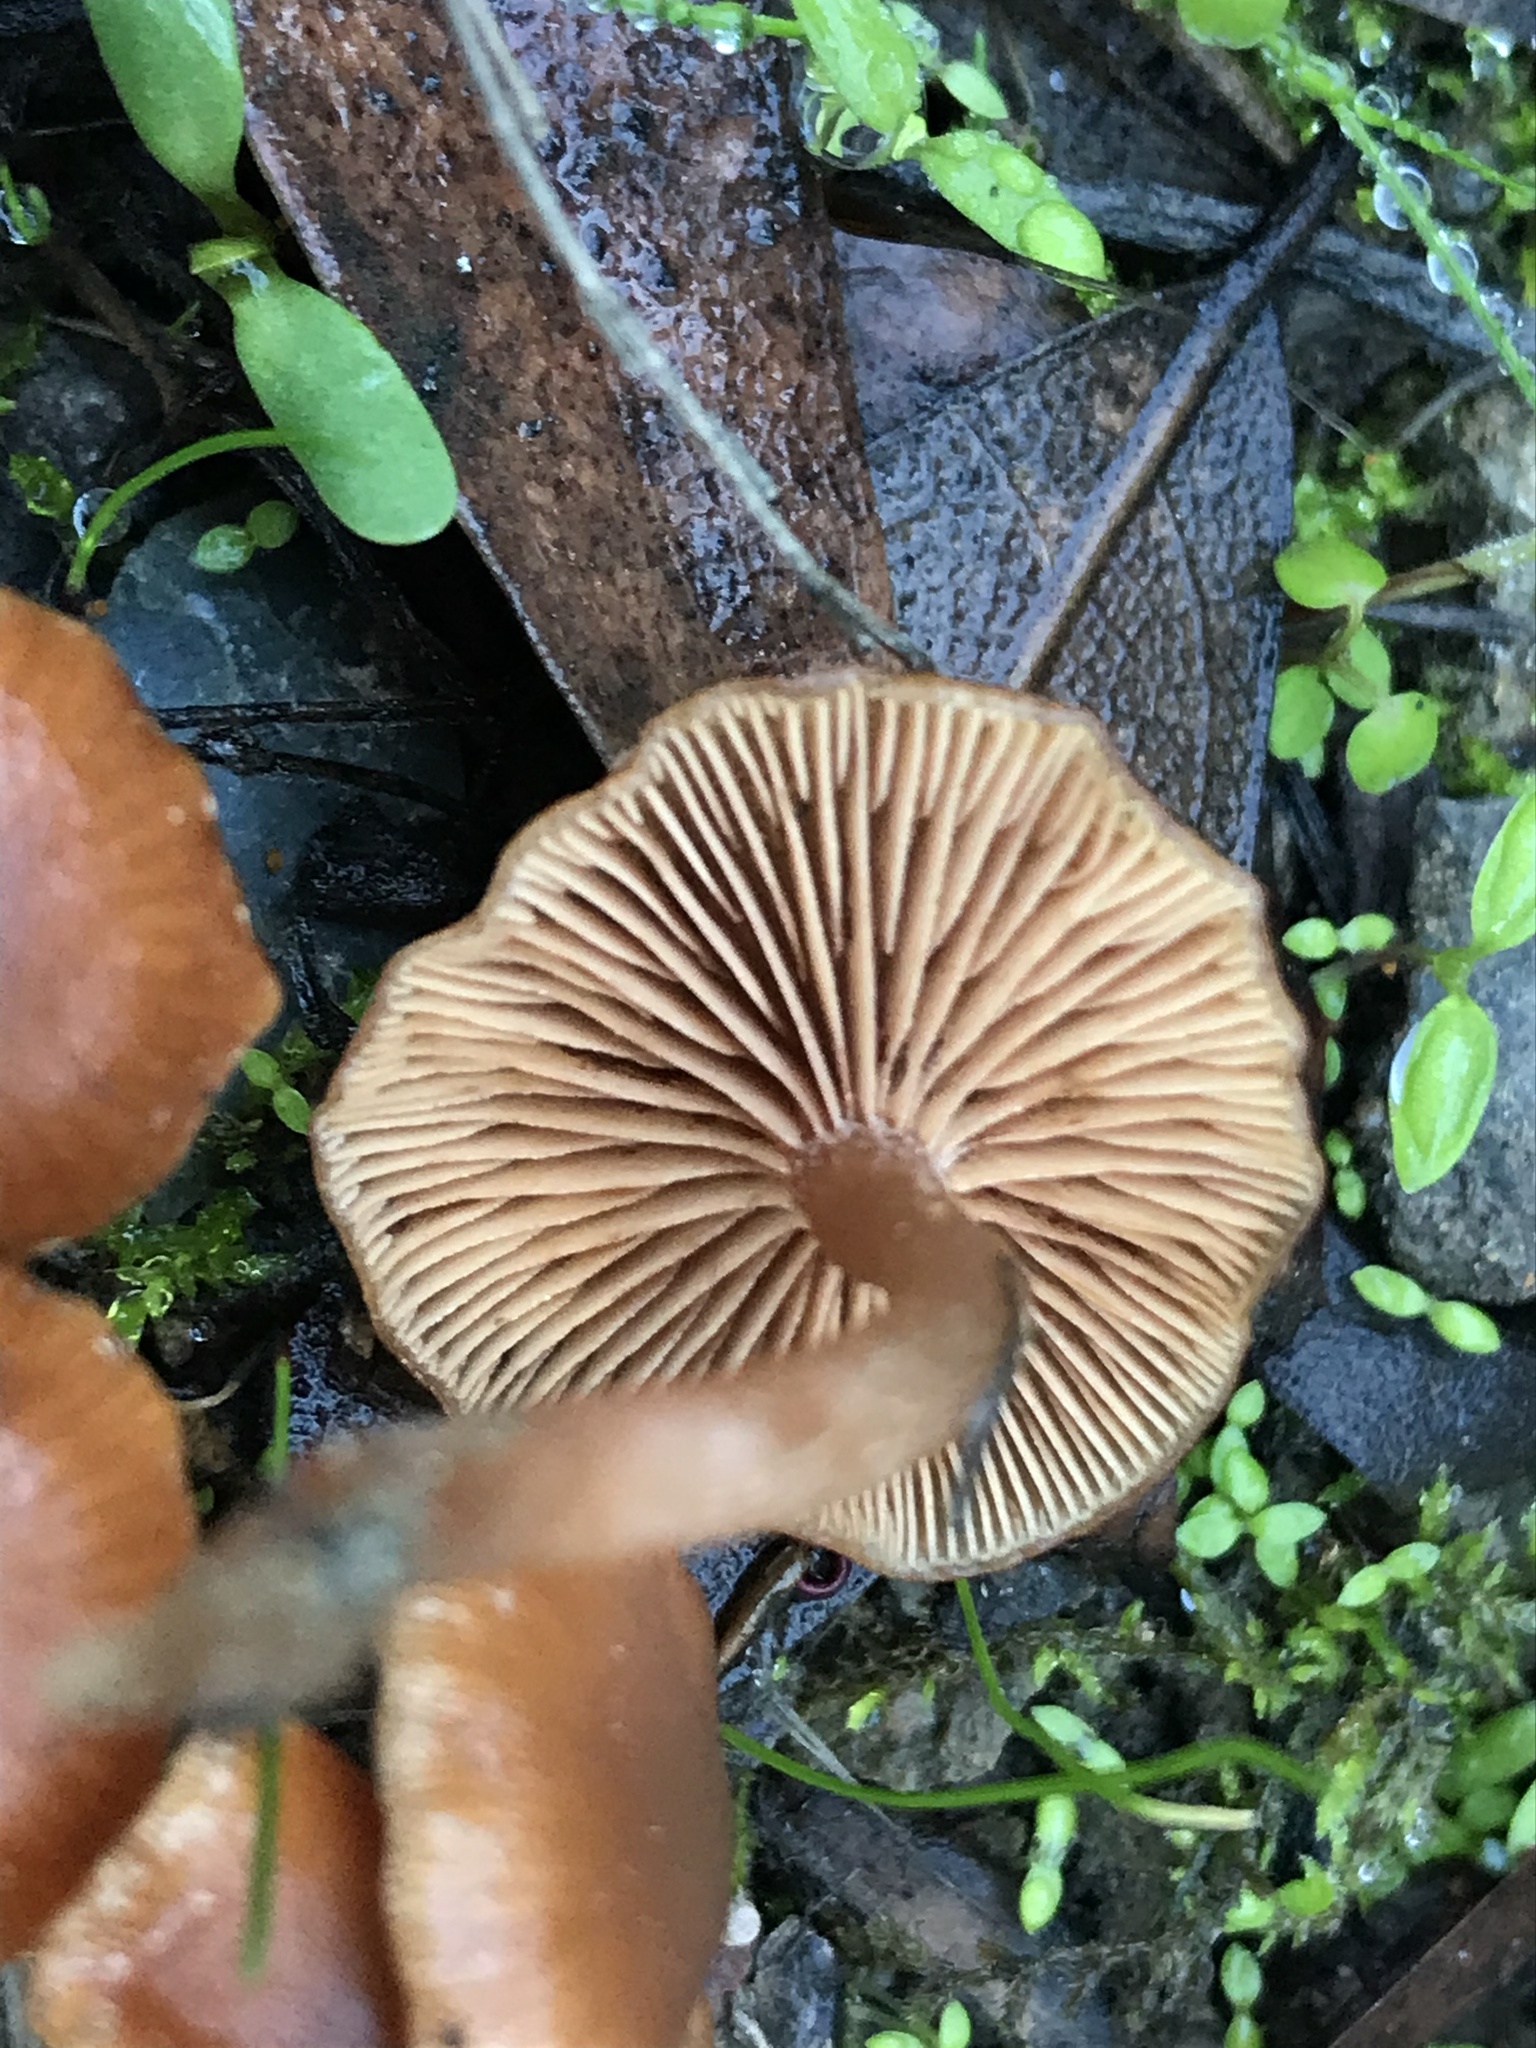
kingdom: Fungi
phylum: Basidiomycota
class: Agaricomycetes
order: Agaricales
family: Tubariaceae
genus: Tubaria
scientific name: Tubaria furfuracea
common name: Scurfy twiglet
